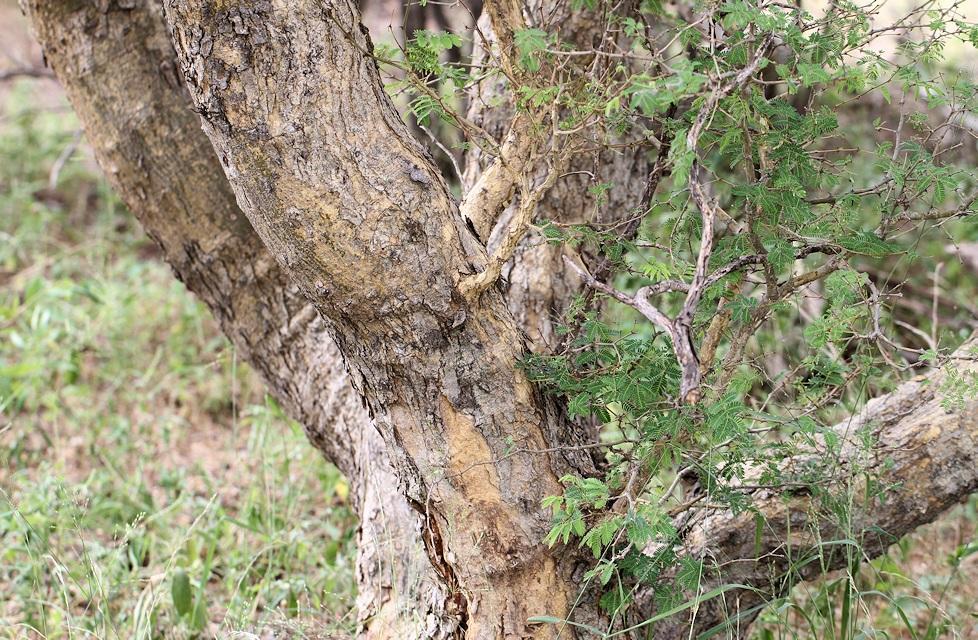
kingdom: Plantae
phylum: Tracheophyta
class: Magnoliopsida
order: Fabales
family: Fabaceae
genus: Senegalia
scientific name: Senegalia erubescens
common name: Bluethorn
